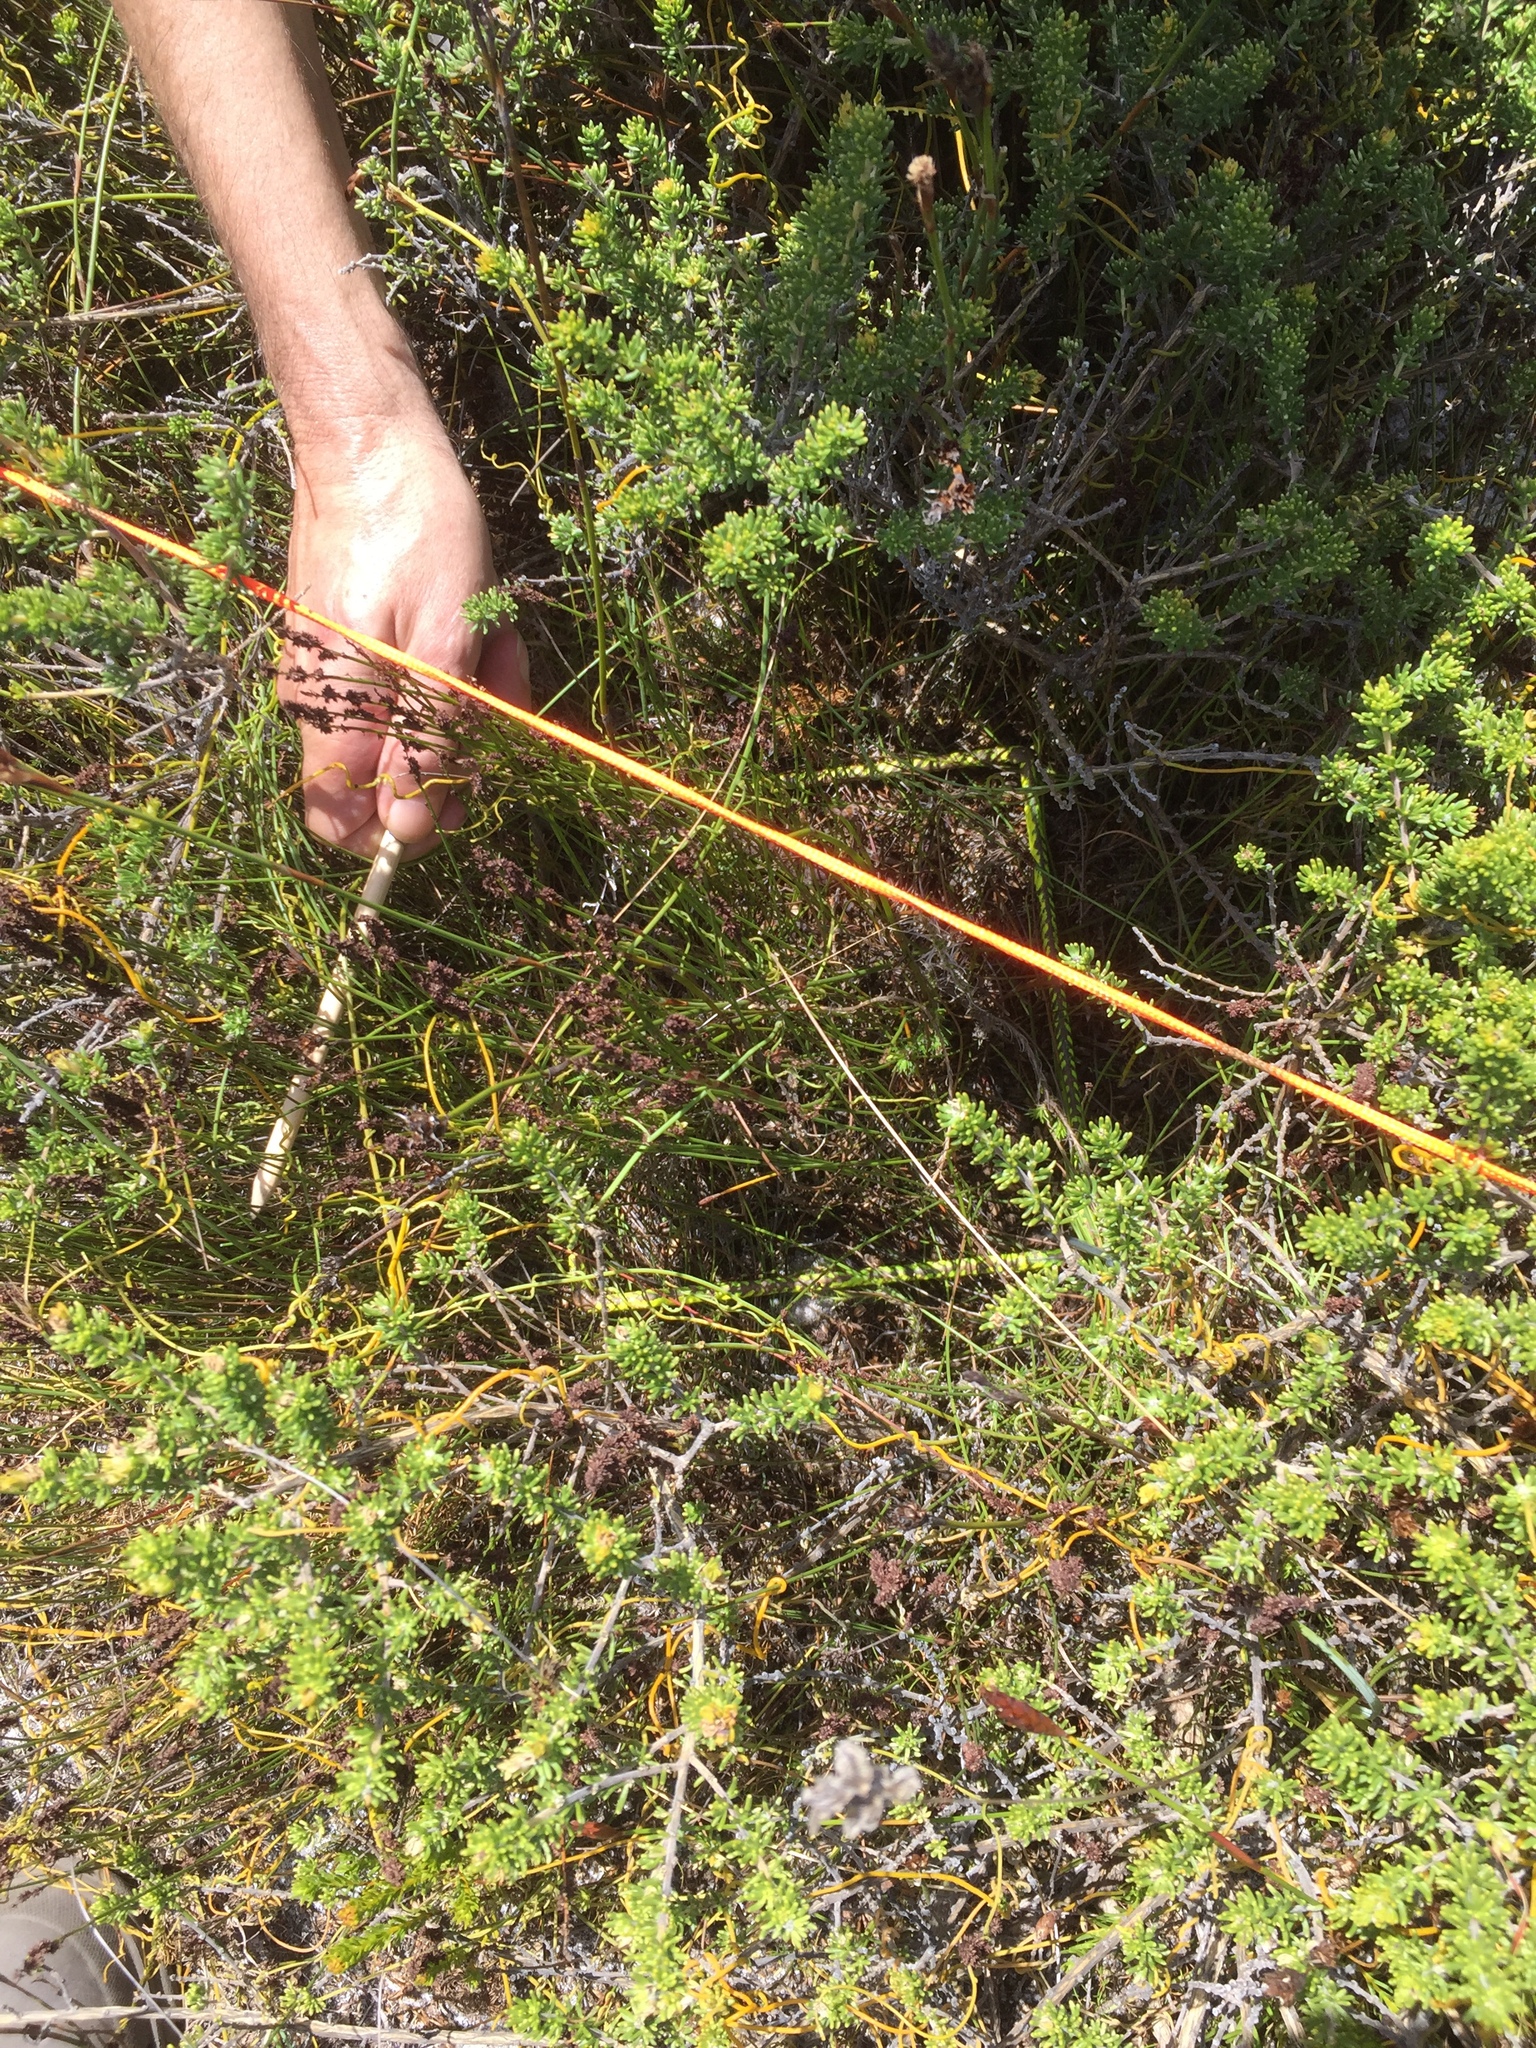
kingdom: Plantae
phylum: Tracheophyta
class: Magnoliopsida
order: Fabales
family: Fabaceae
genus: Aspalathus
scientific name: Aspalathus carnosa
